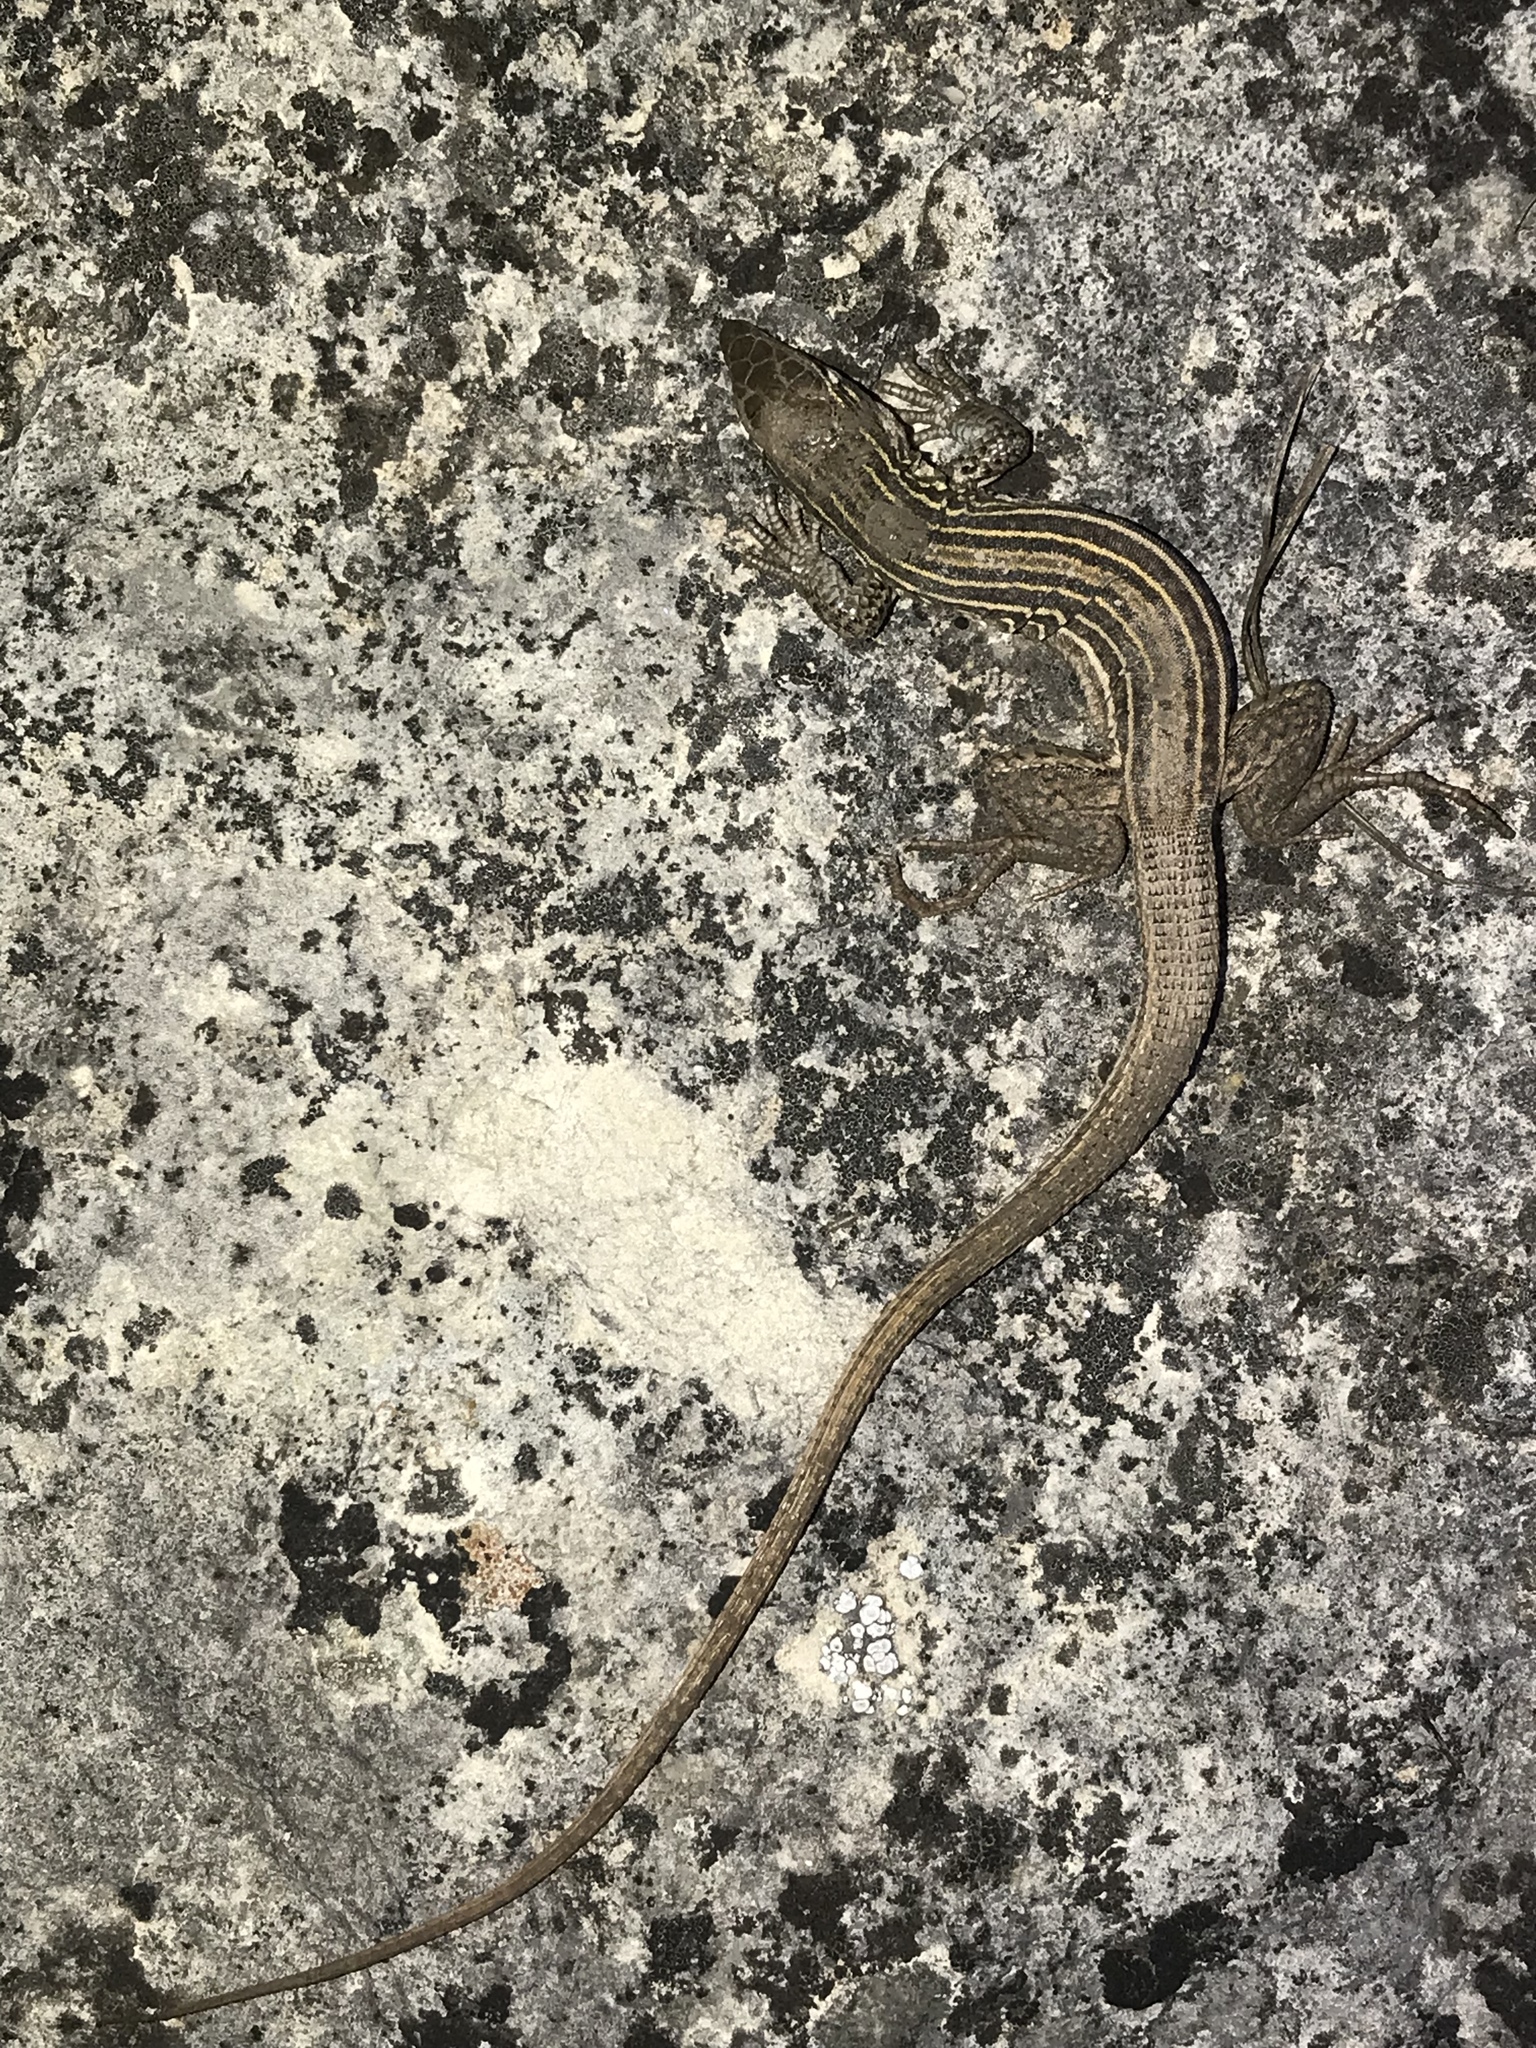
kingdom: Animalia
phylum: Chordata
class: Squamata
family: Teiidae
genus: Aspidoscelis
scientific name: Aspidoscelis gularis
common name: Eastern spotted whiptail
